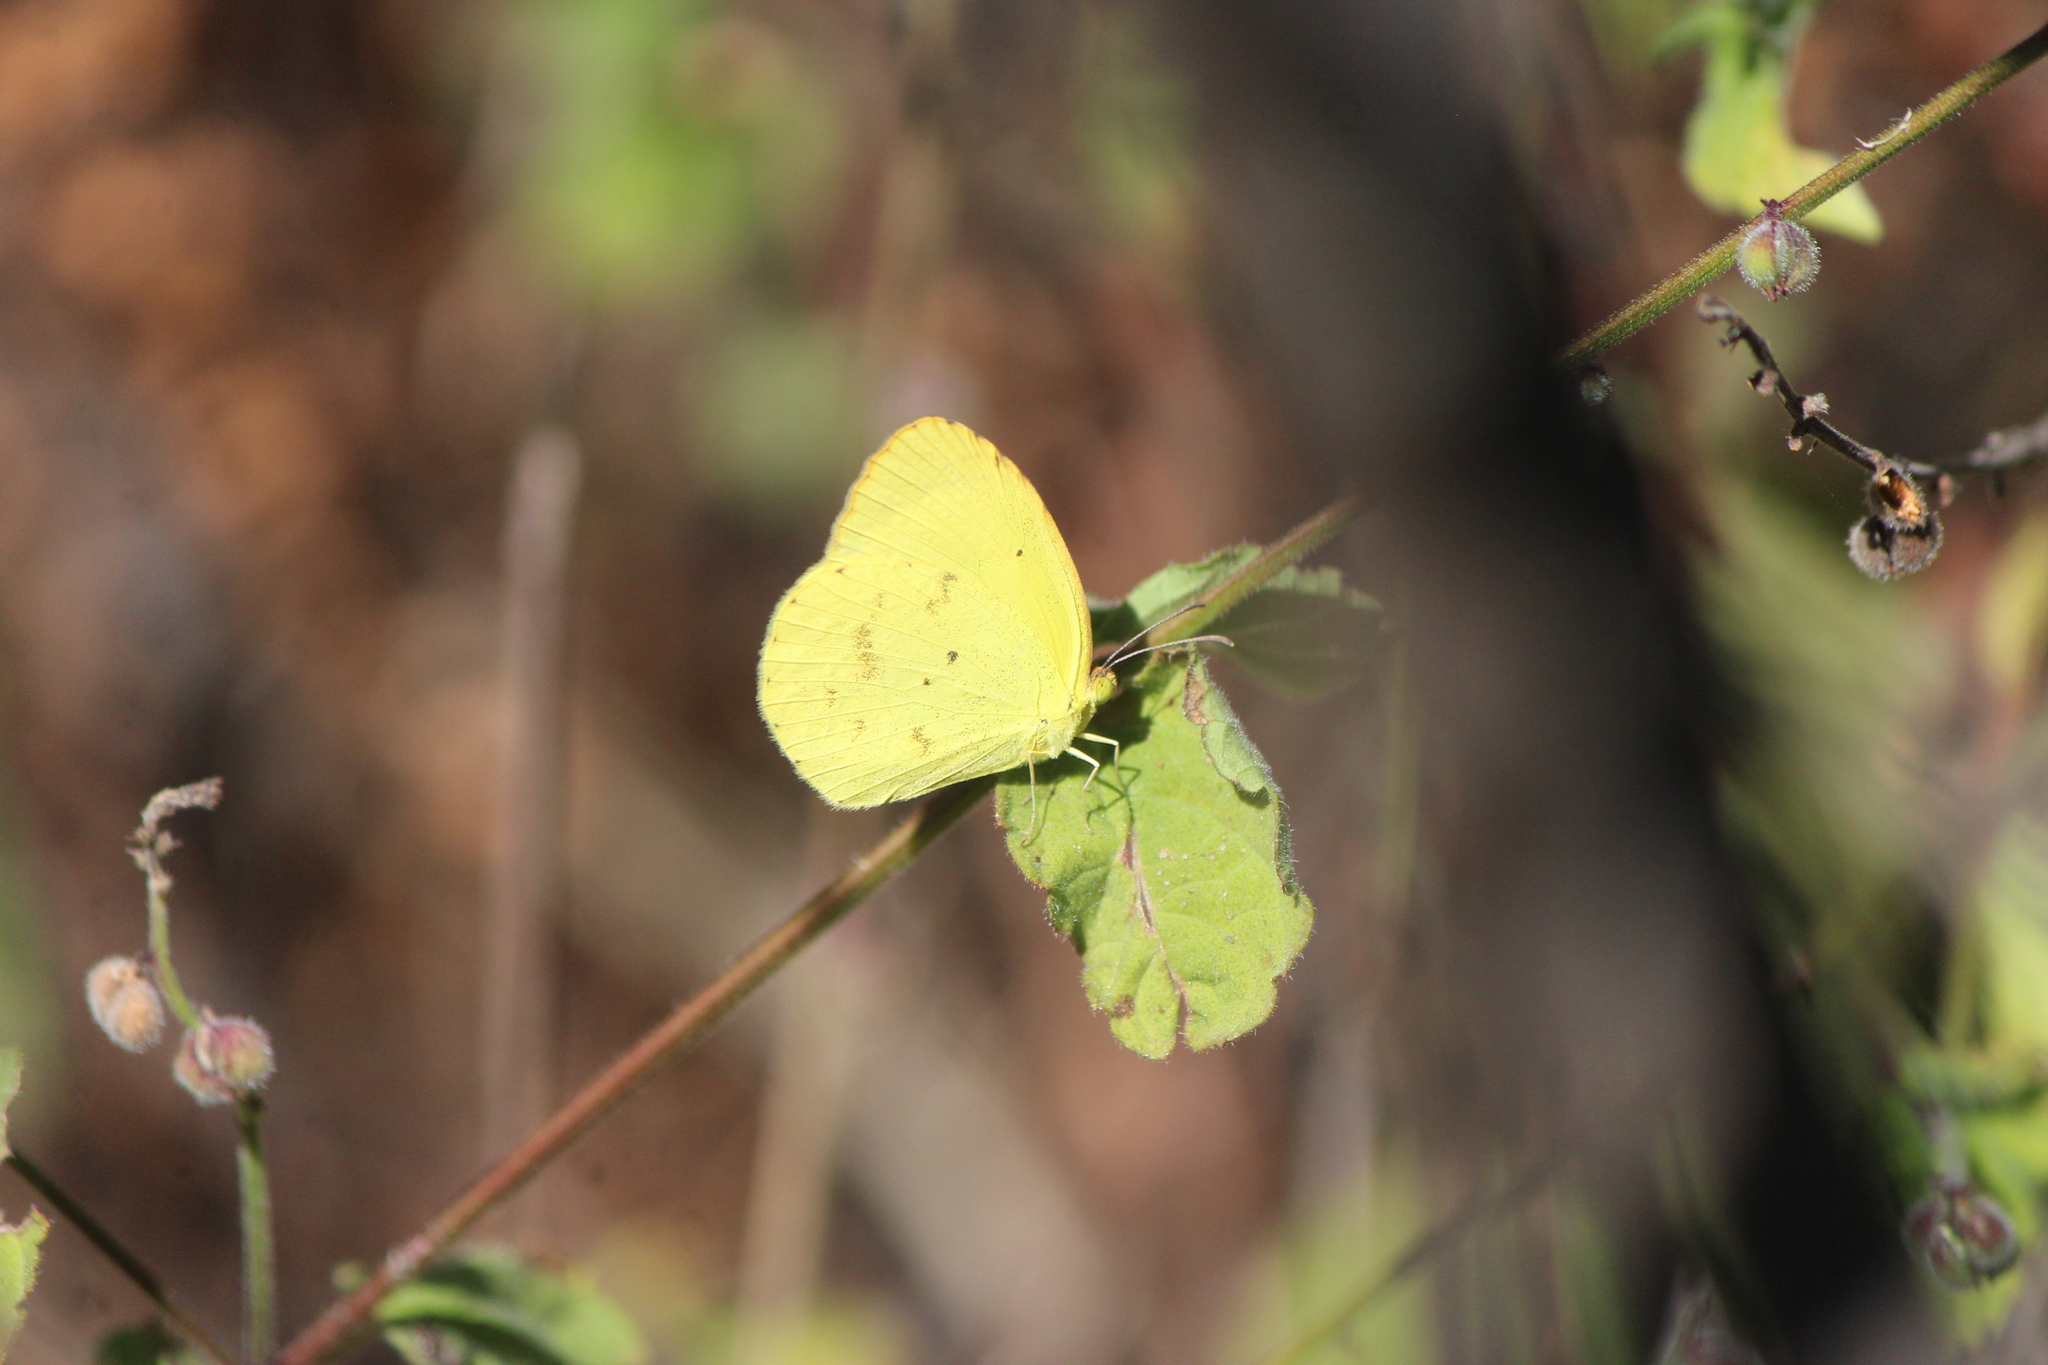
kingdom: Animalia
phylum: Arthropoda
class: Insecta
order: Lepidoptera
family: Pieridae
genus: Pyrisitia
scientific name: Pyrisitia nise
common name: Mimosa yellow
